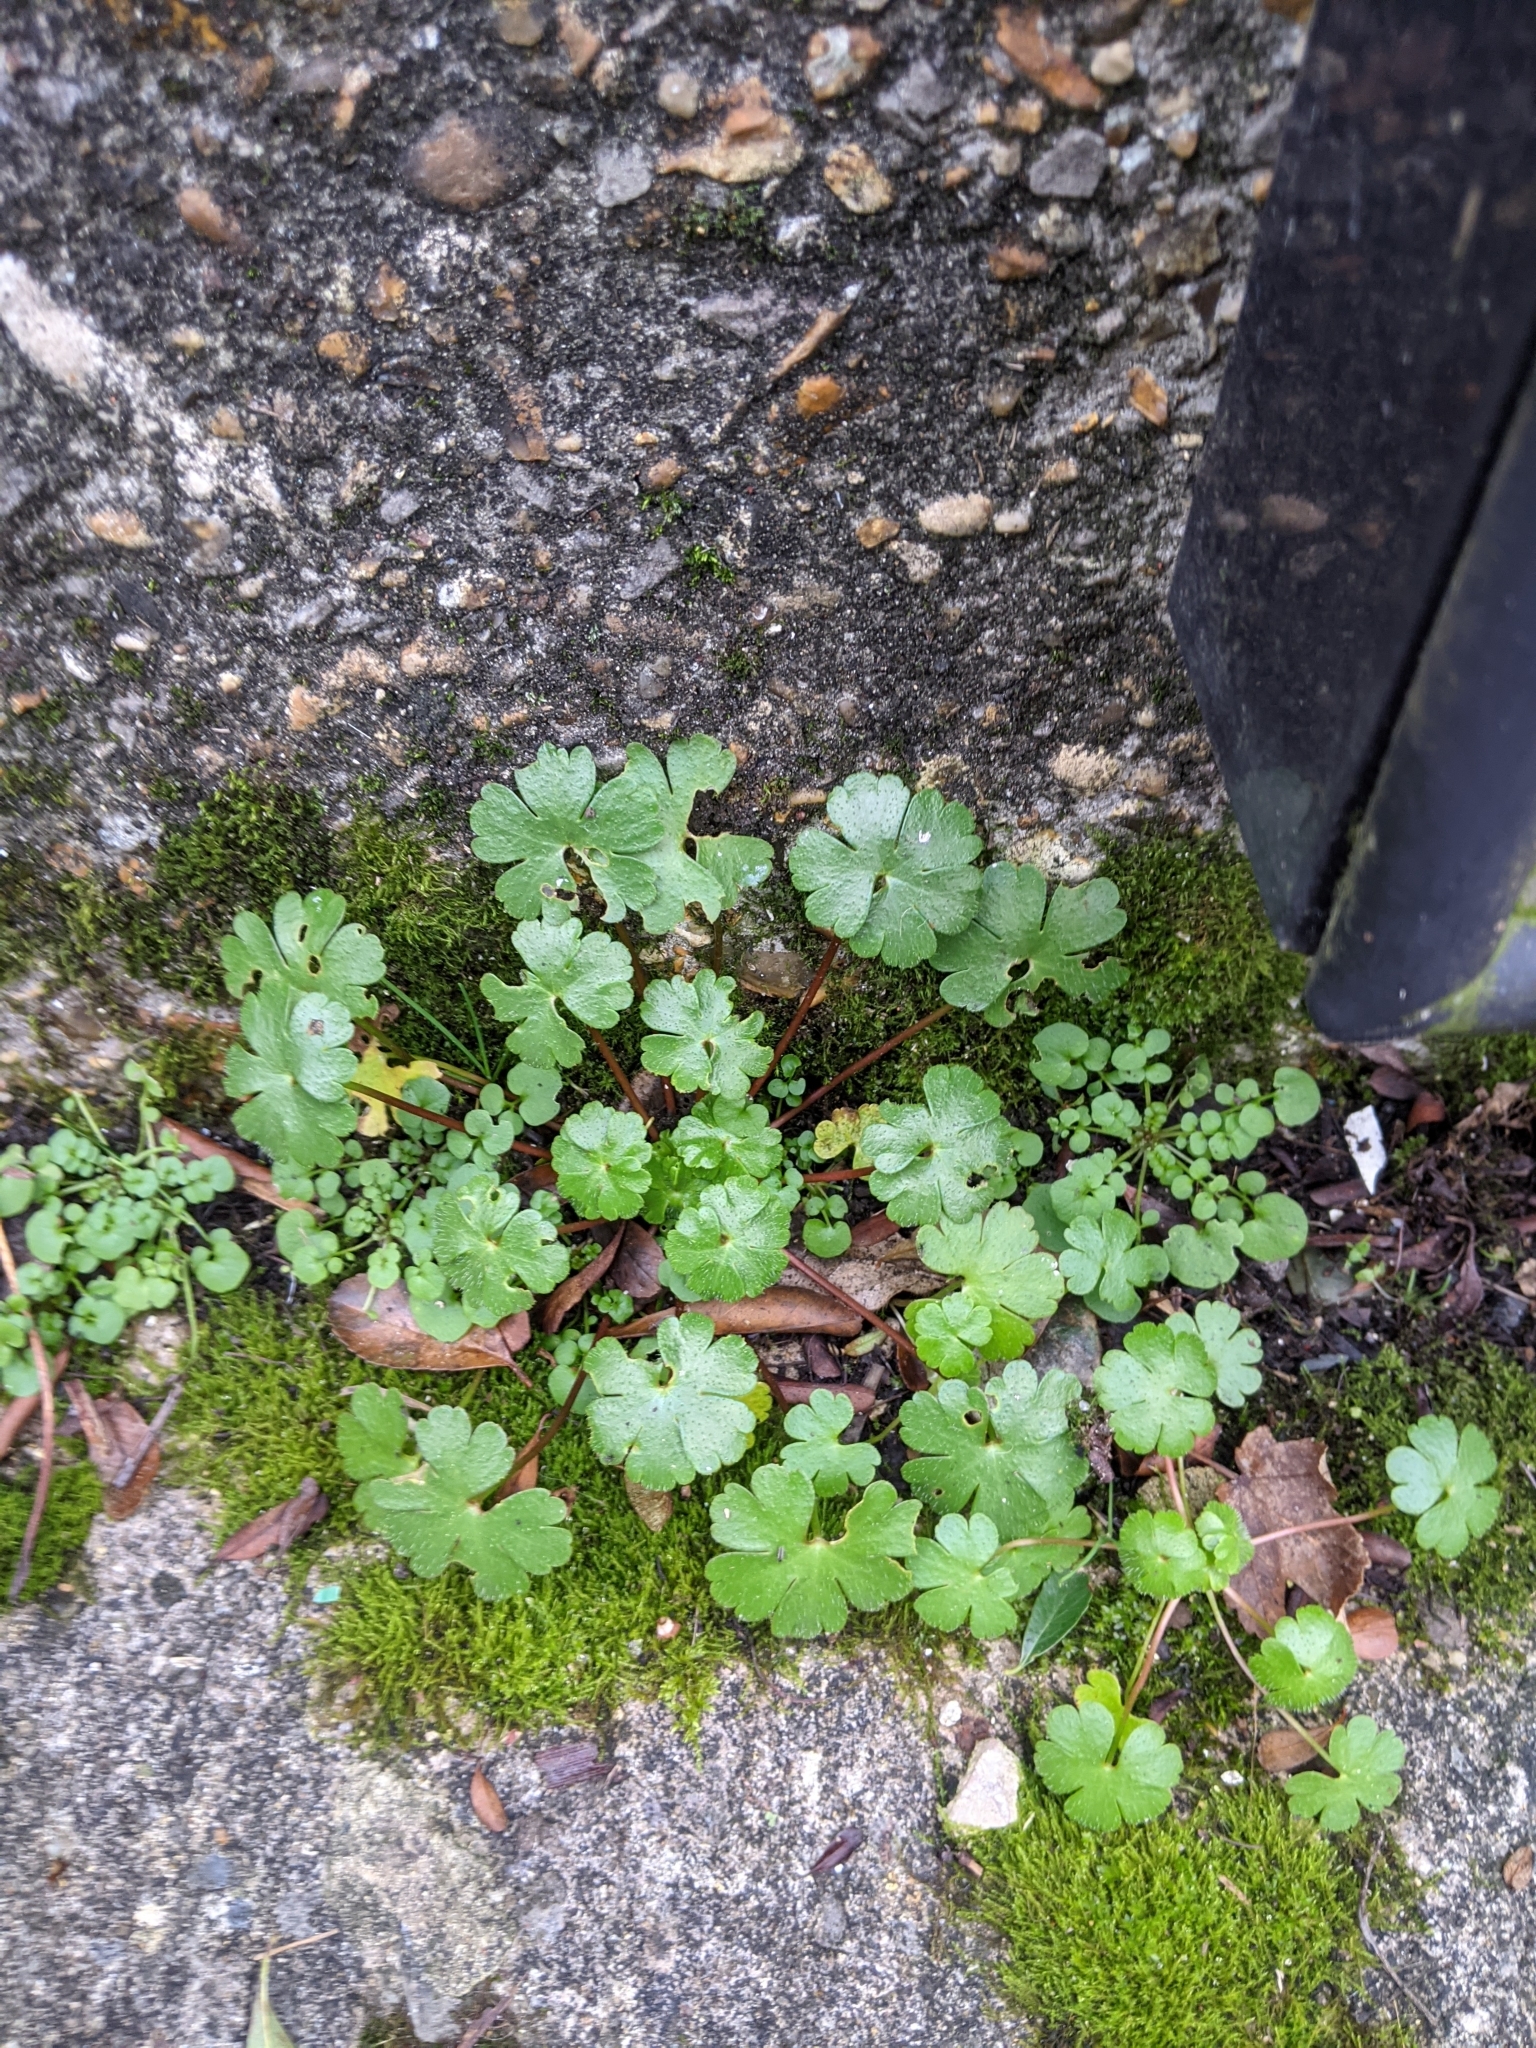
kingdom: Plantae
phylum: Tracheophyta
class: Magnoliopsida
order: Geraniales
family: Geraniaceae
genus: Geranium
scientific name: Geranium lucidum
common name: Shining crane's-bill
